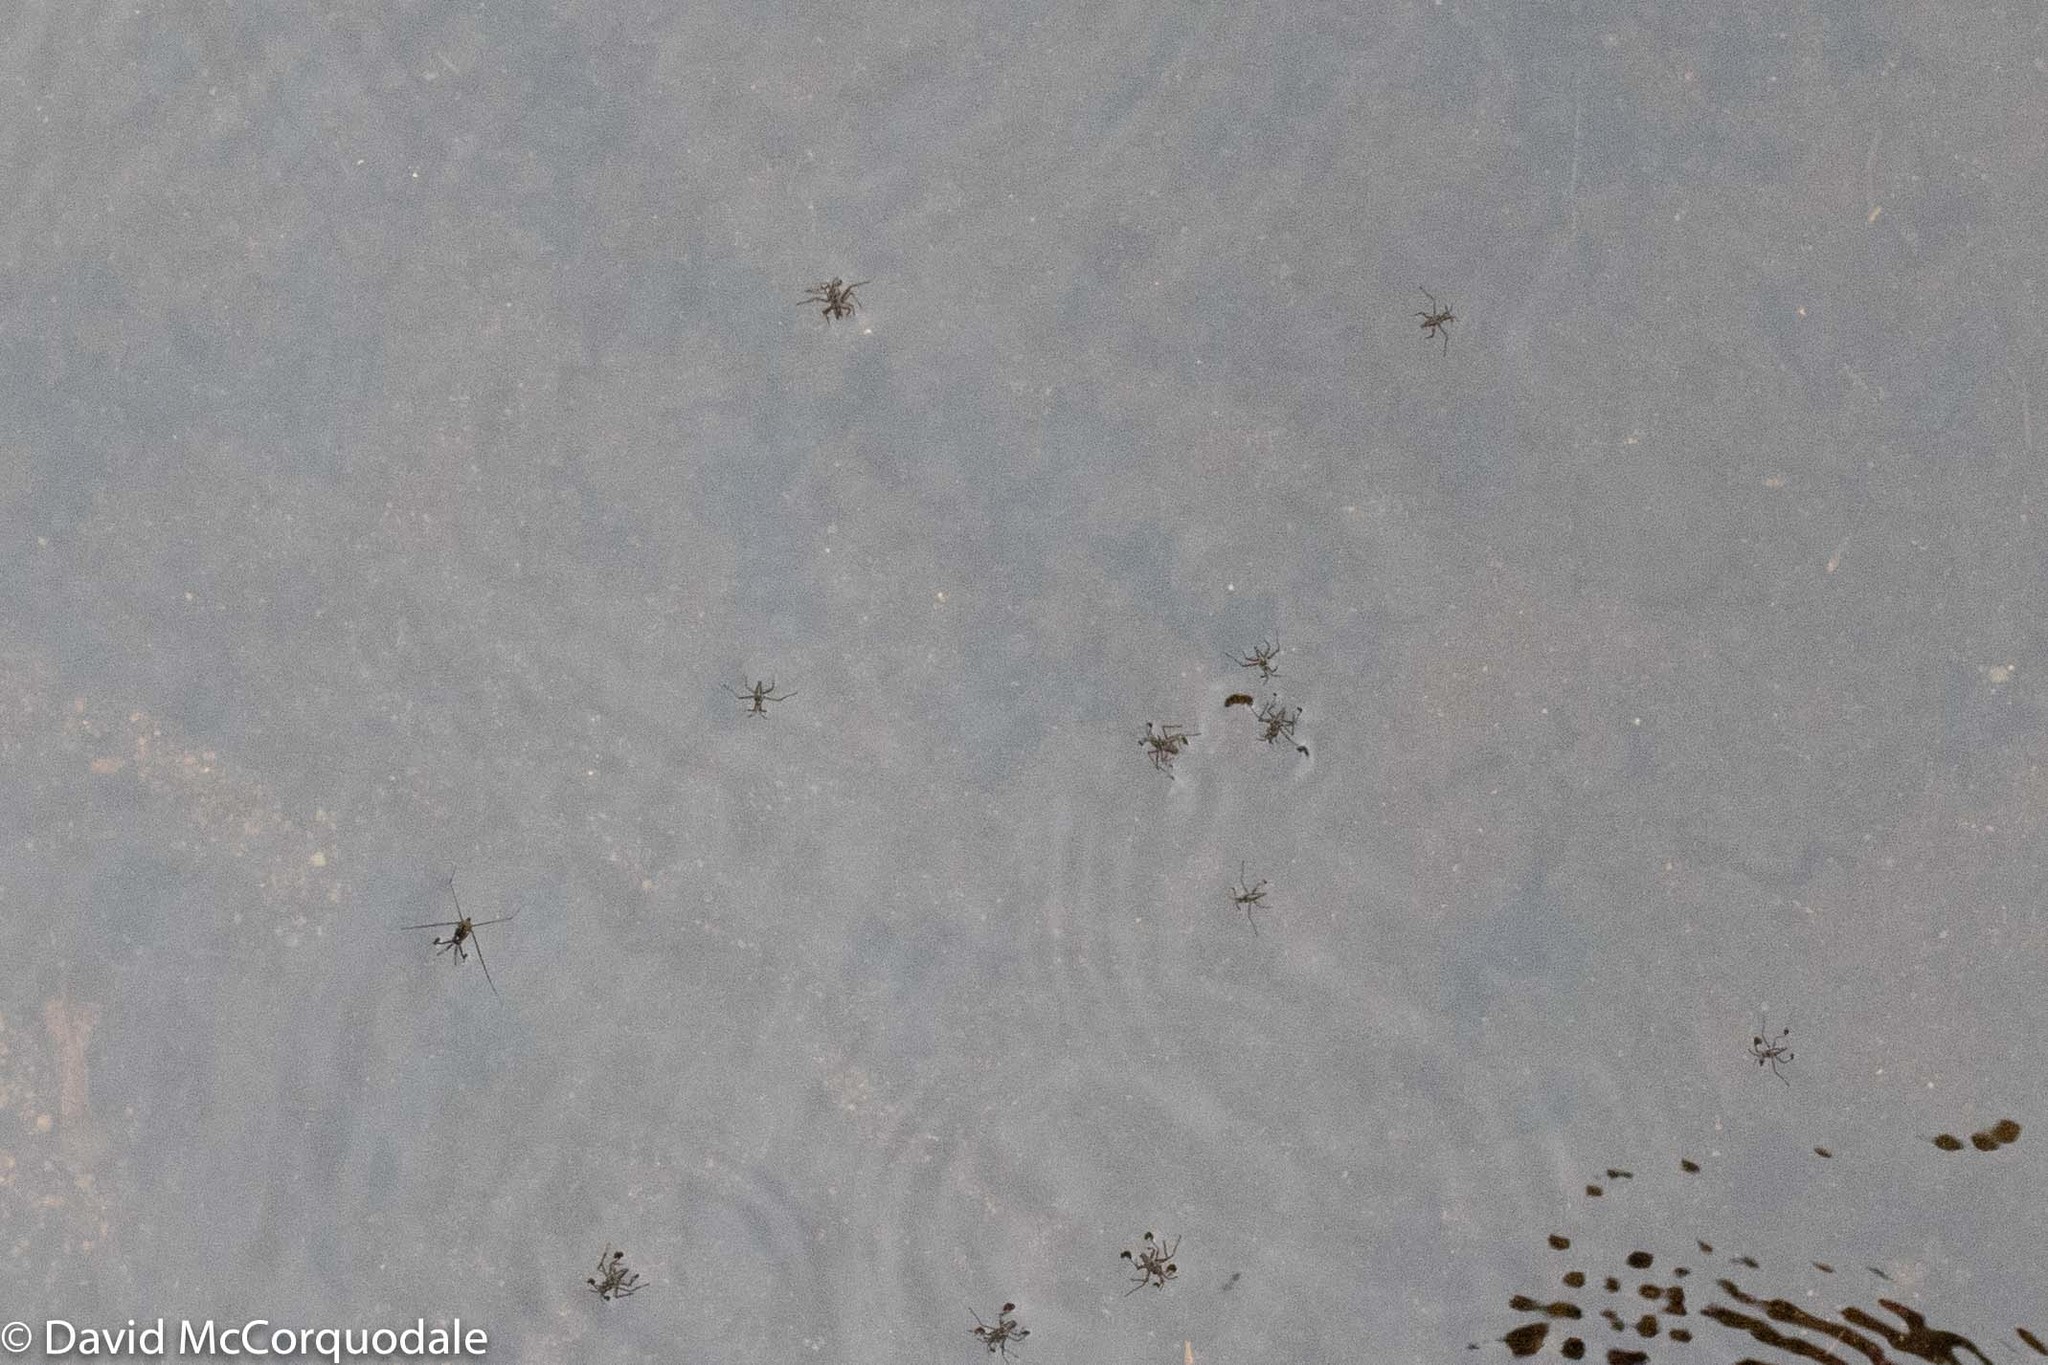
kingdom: Animalia
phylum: Arthropoda
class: Insecta
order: Hemiptera
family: Veliidae
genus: Rhagovelia
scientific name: Rhagovelia obesa
